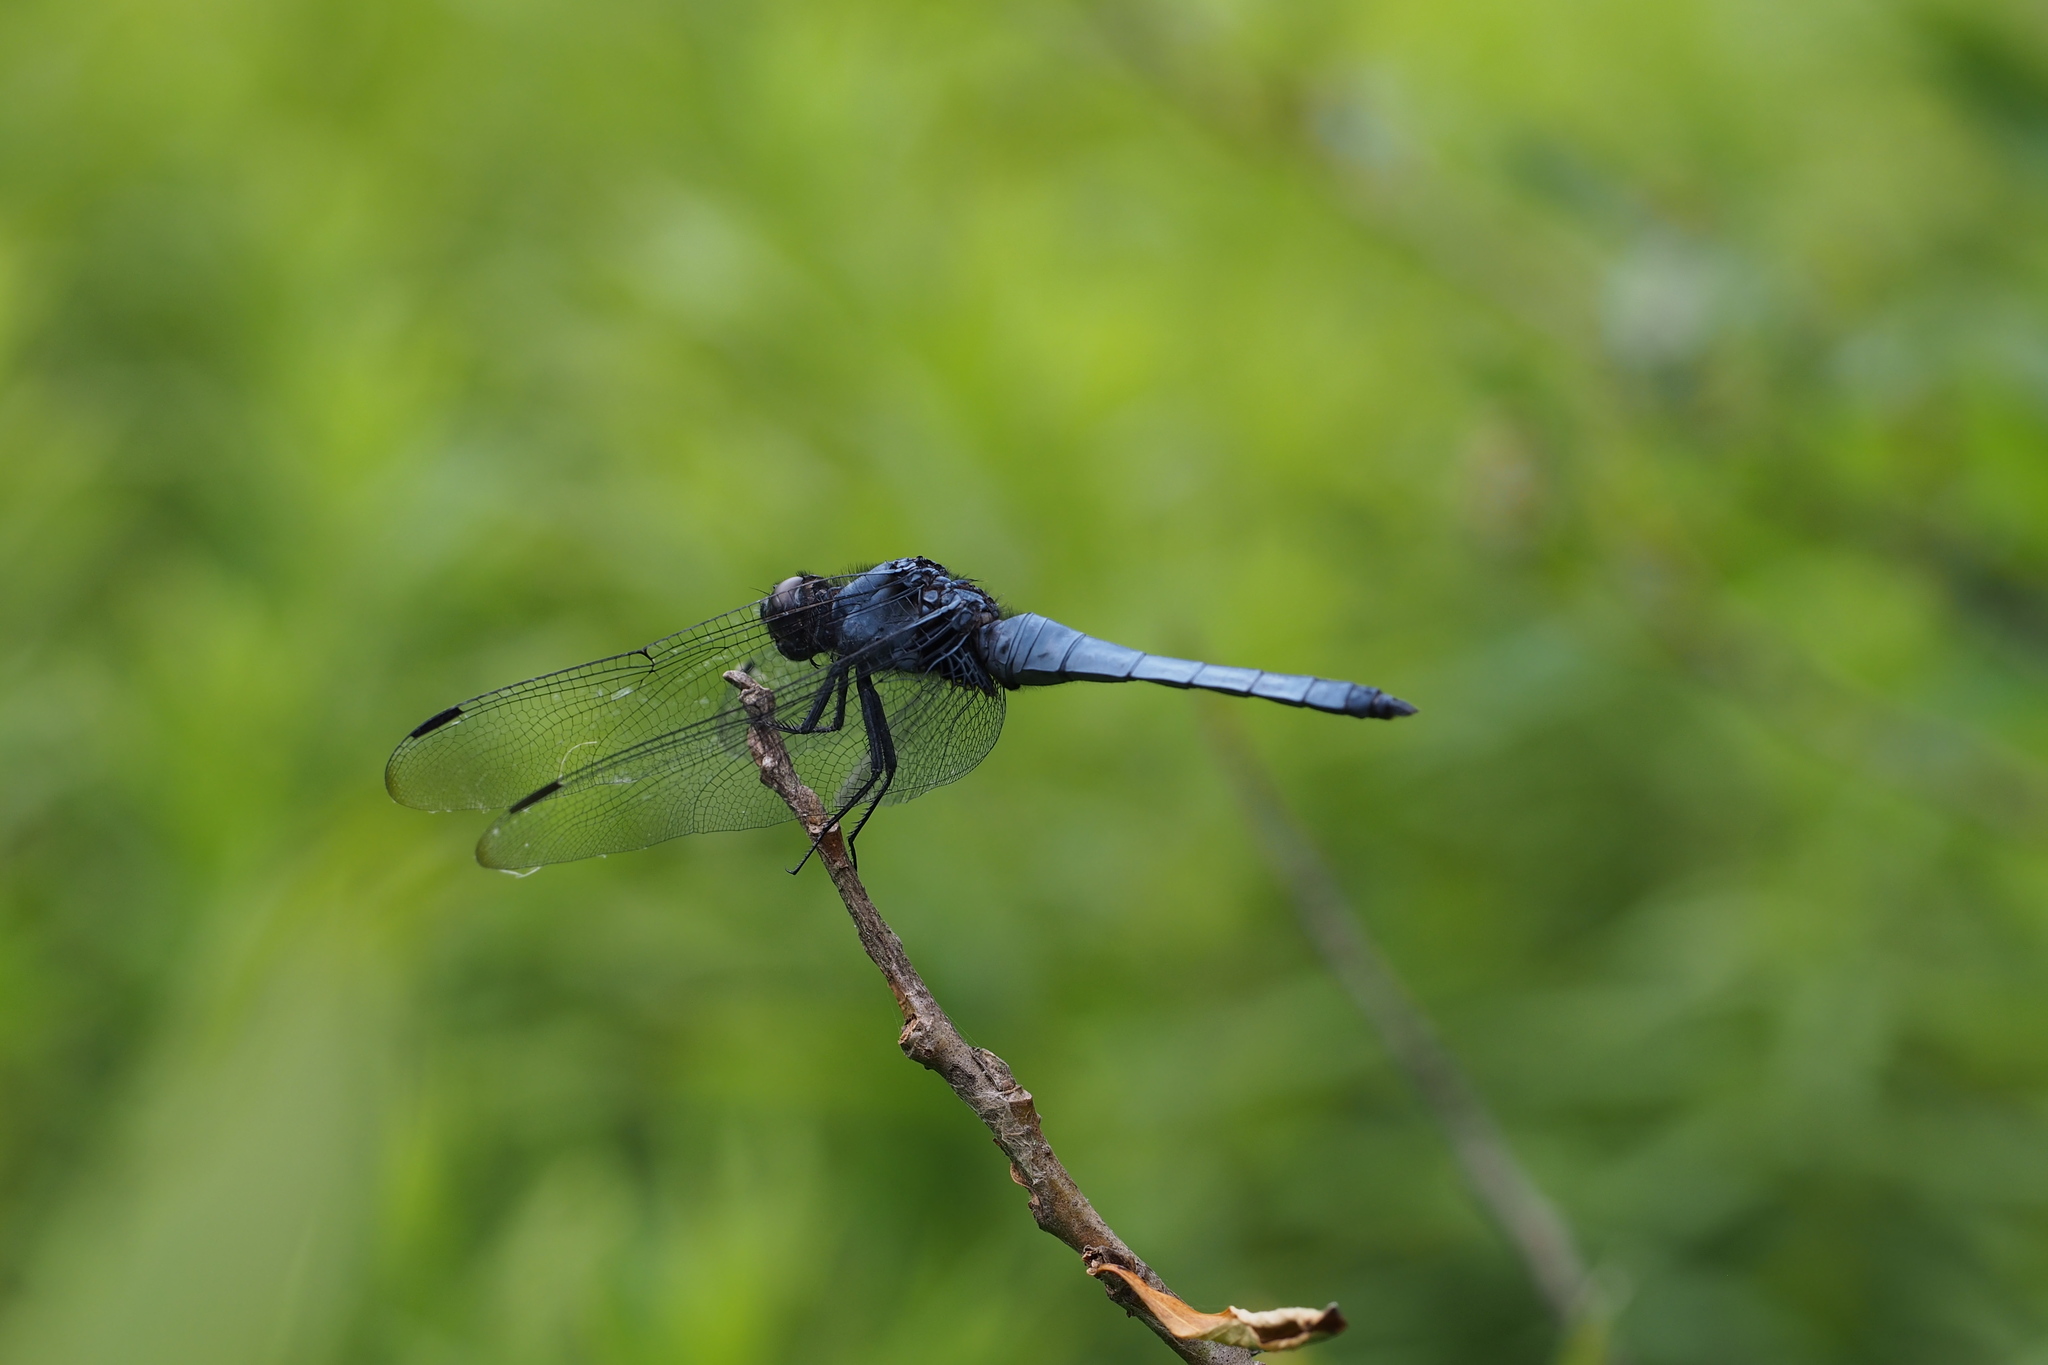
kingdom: Animalia
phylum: Arthropoda
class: Insecta
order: Odonata
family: Libellulidae
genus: Orthetrum
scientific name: Orthetrum melania
